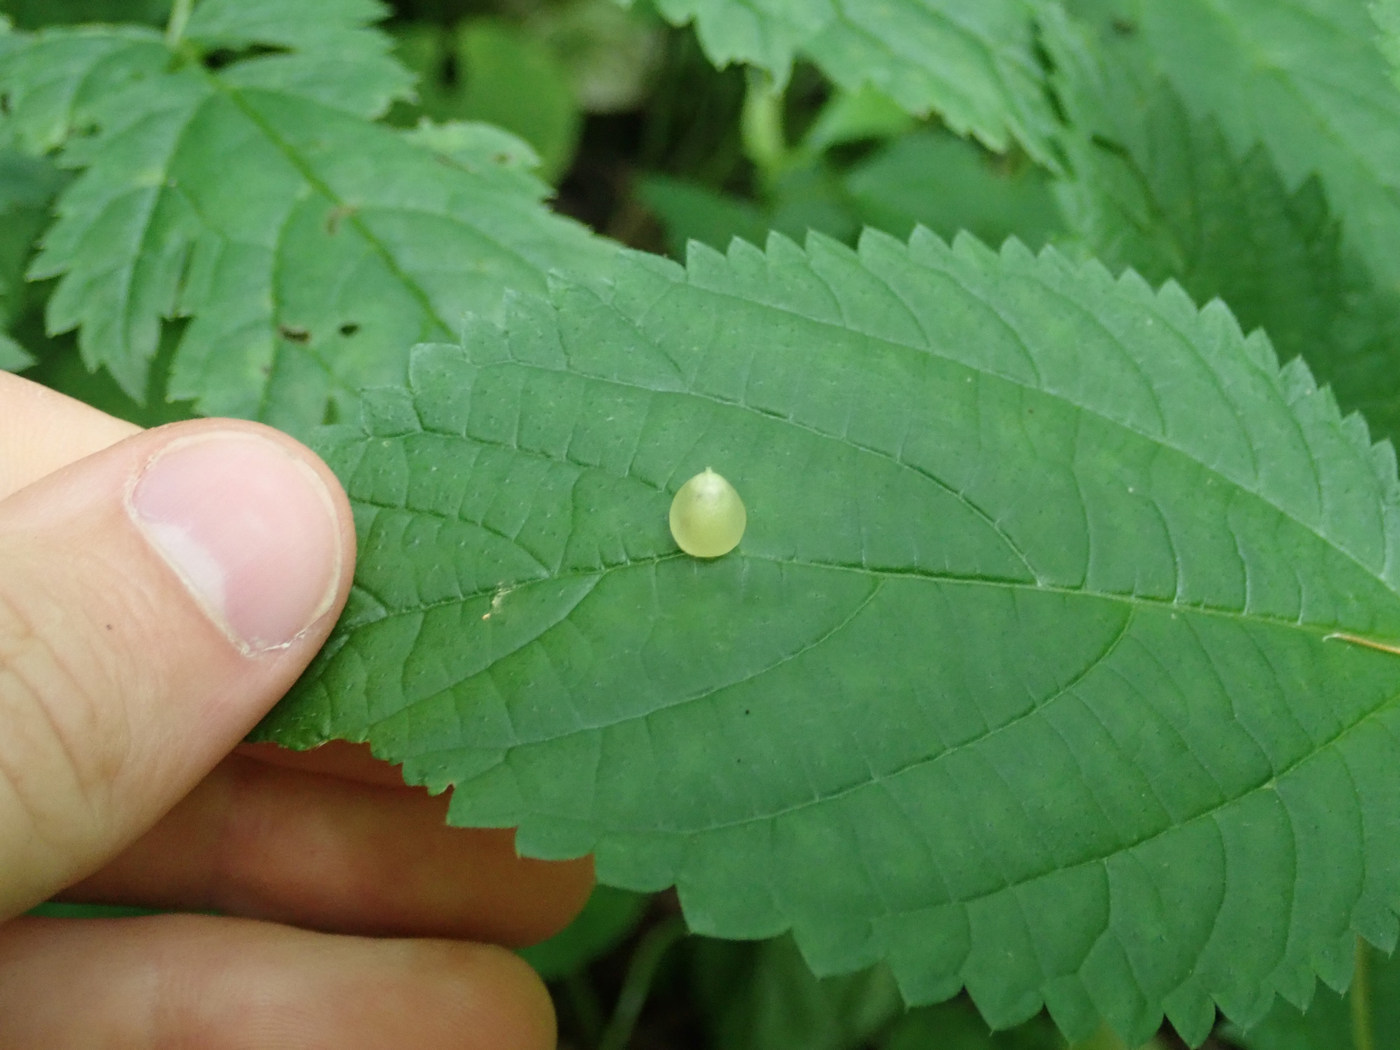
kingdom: Animalia
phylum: Arthropoda
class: Insecta
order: Diptera
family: Cecidomyiidae
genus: Dasineura
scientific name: Dasineura investita
